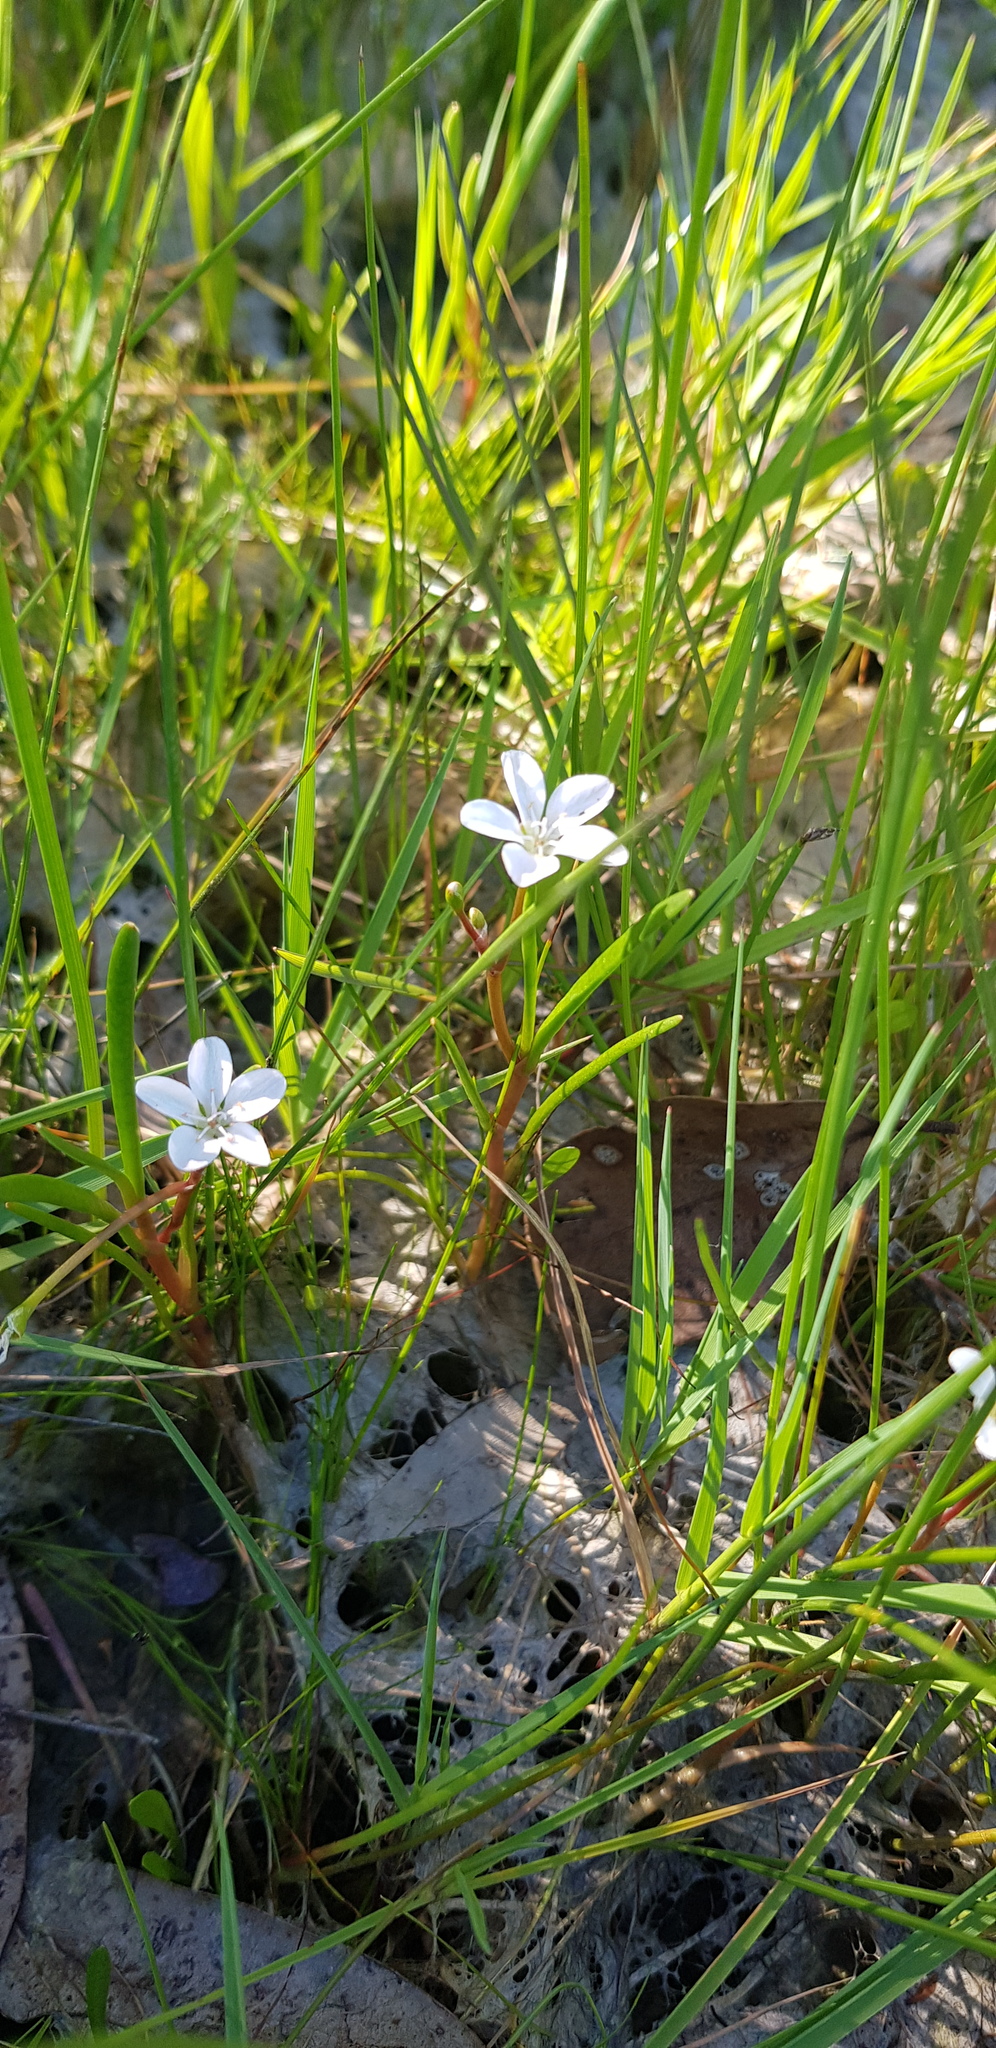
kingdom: Plantae
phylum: Tracheophyta
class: Magnoliopsida
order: Caryophyllales
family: Montiaceae
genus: Montia
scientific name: Montia australasica
